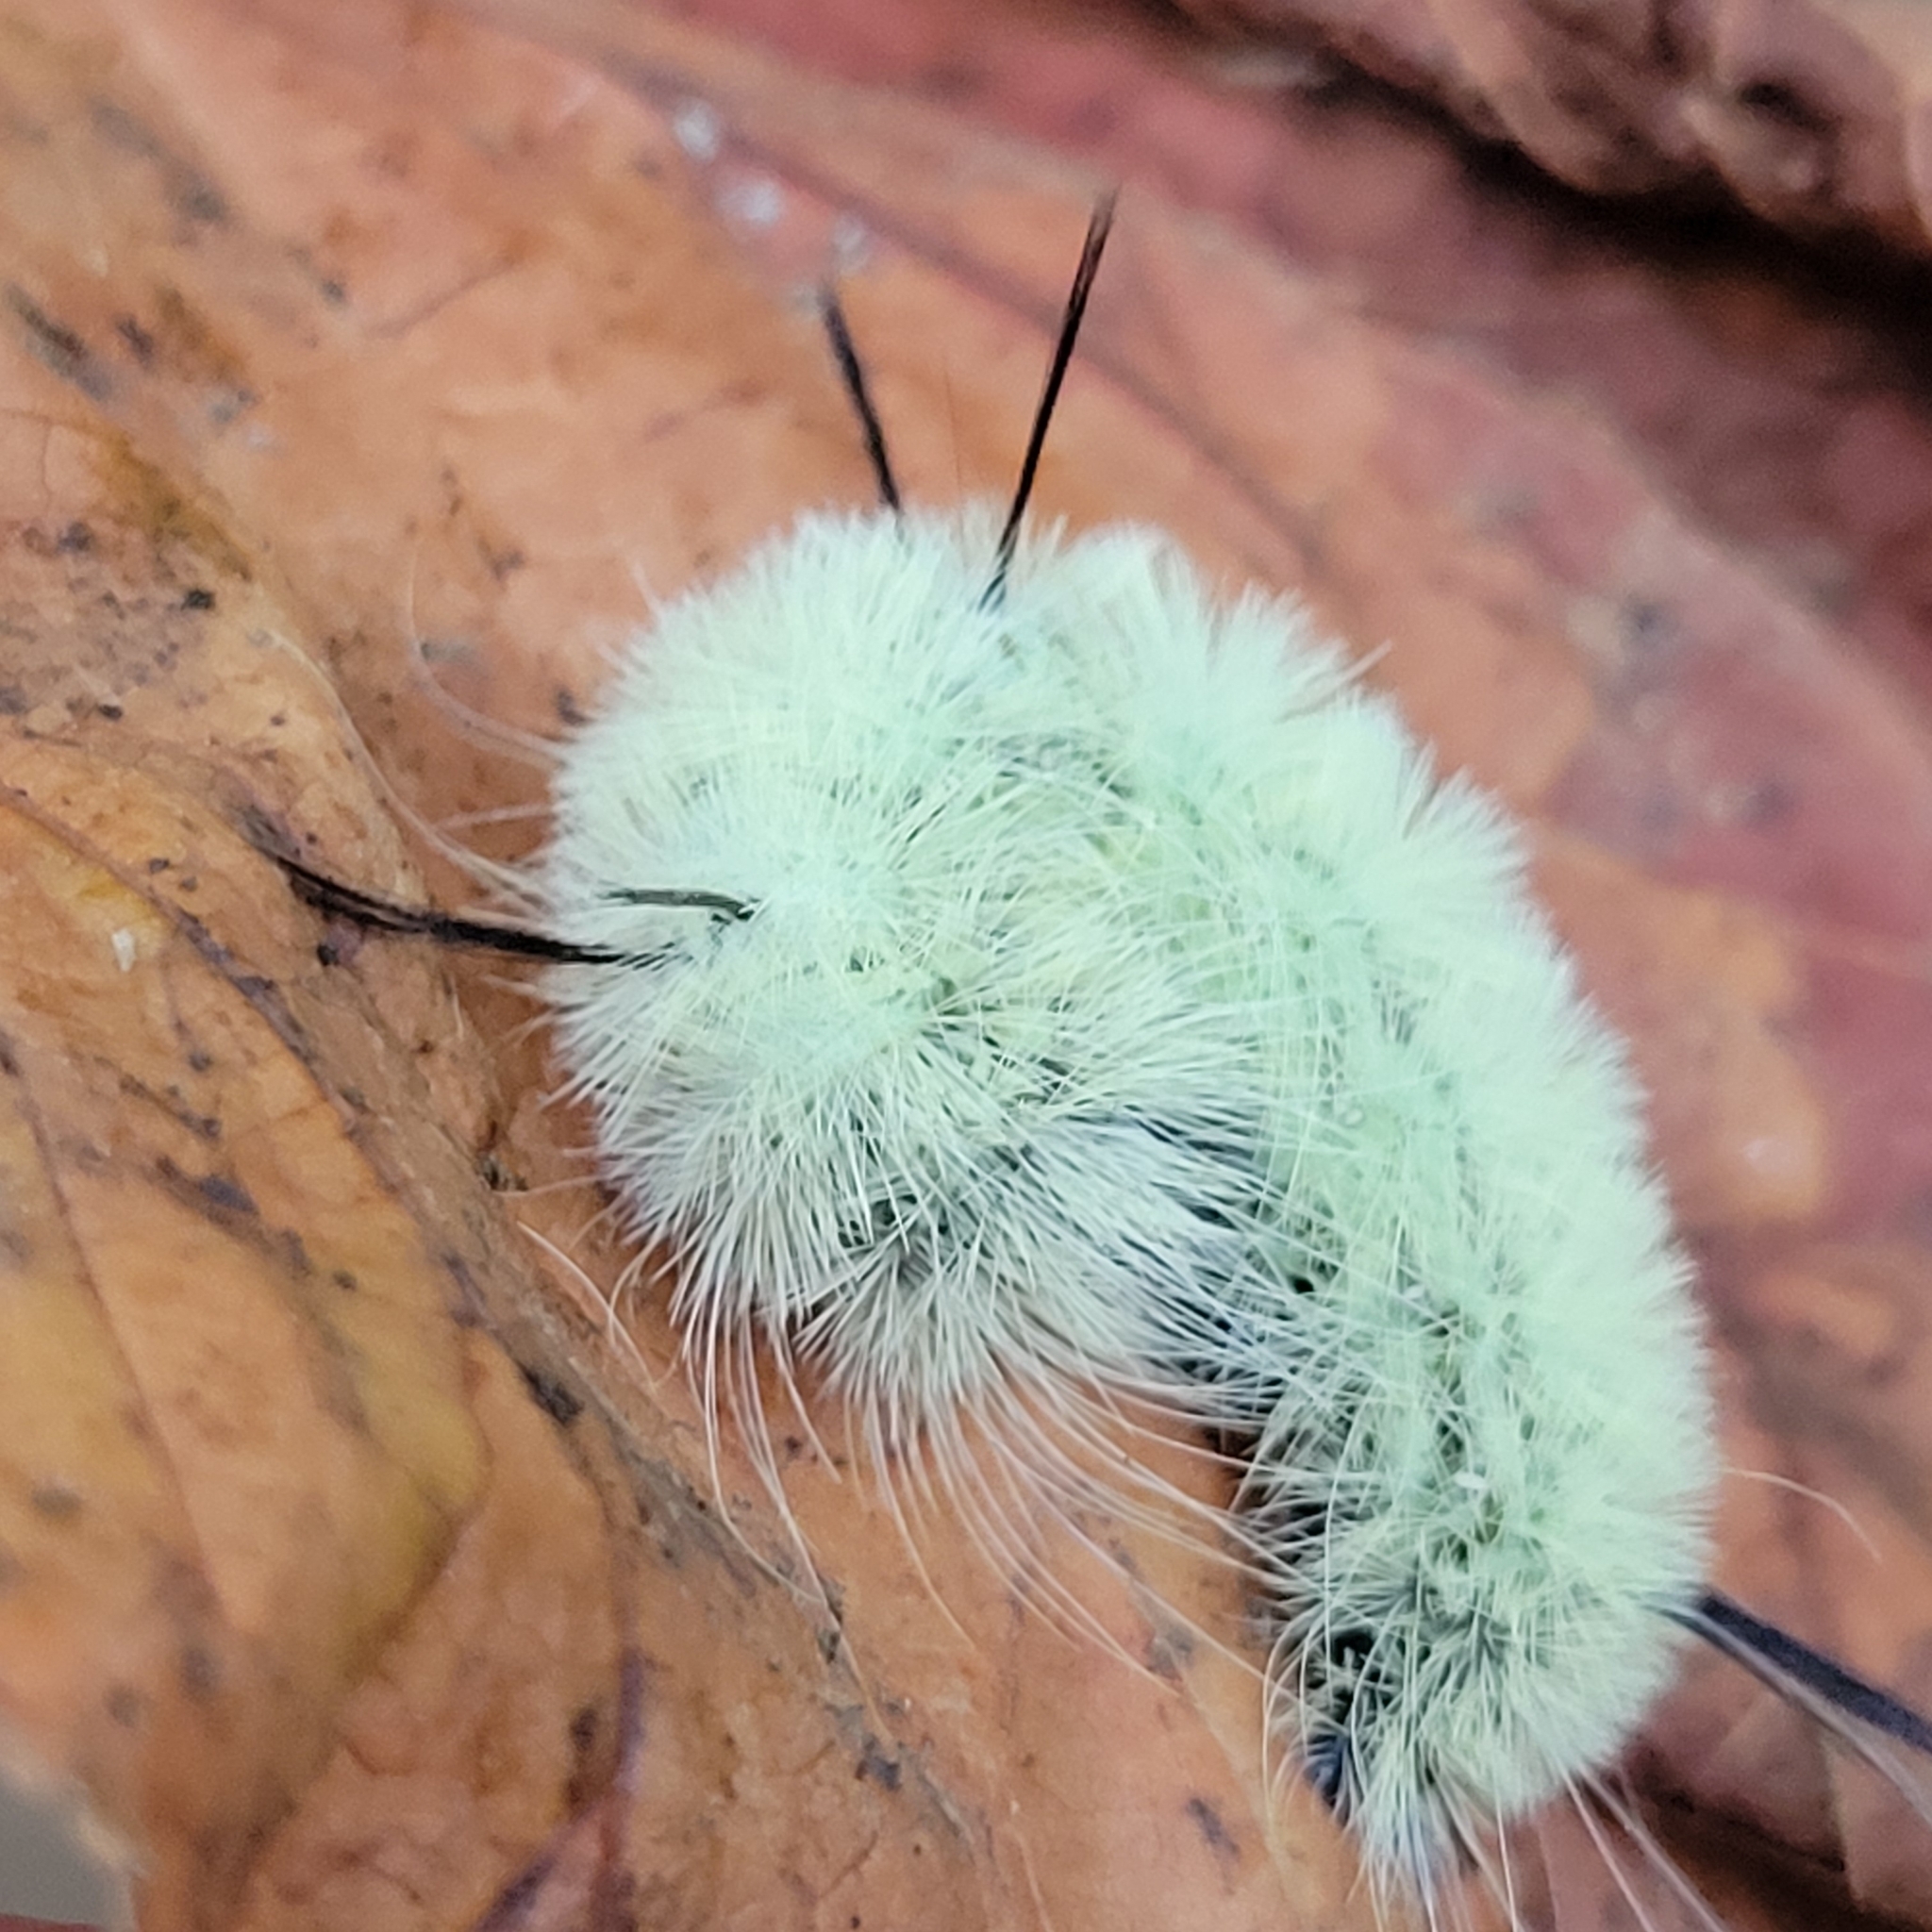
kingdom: Animalia
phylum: Arthropoda
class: Insecta
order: Lepidoptera
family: Noctuidae
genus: Acronicta
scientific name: Acronicta americana
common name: American dagger
